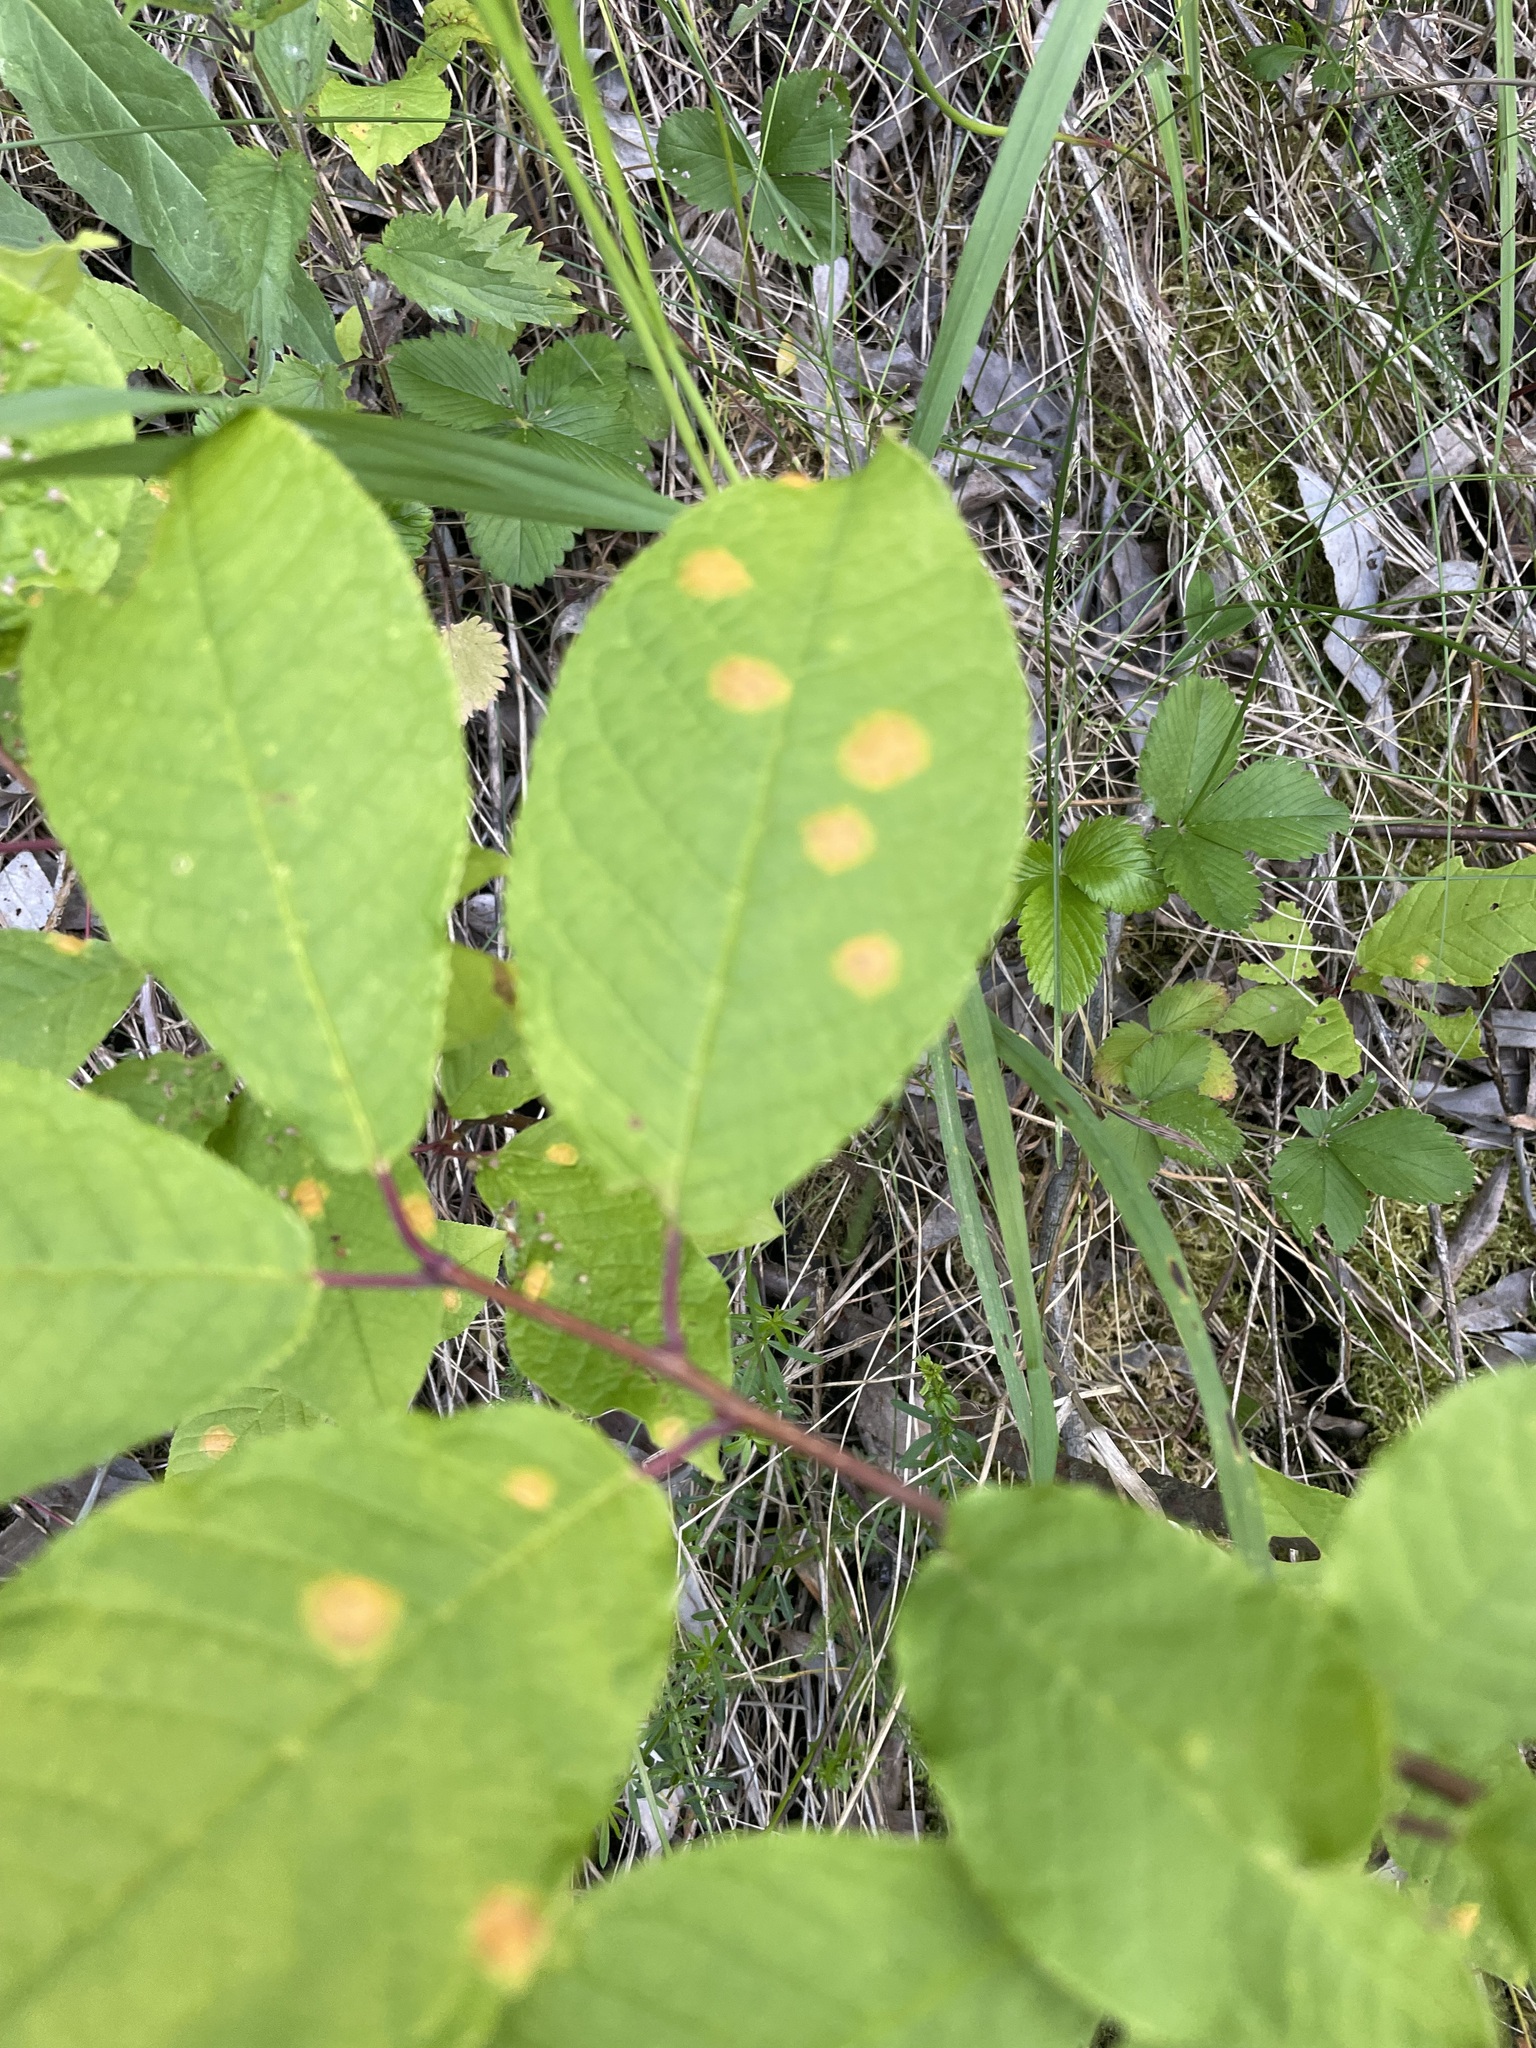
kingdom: Plantae
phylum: Tracheophyta
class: Magnoliopsida
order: Rosales
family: Rosaceae
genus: Prunus
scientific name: Prunus padus
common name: Bird cherry
